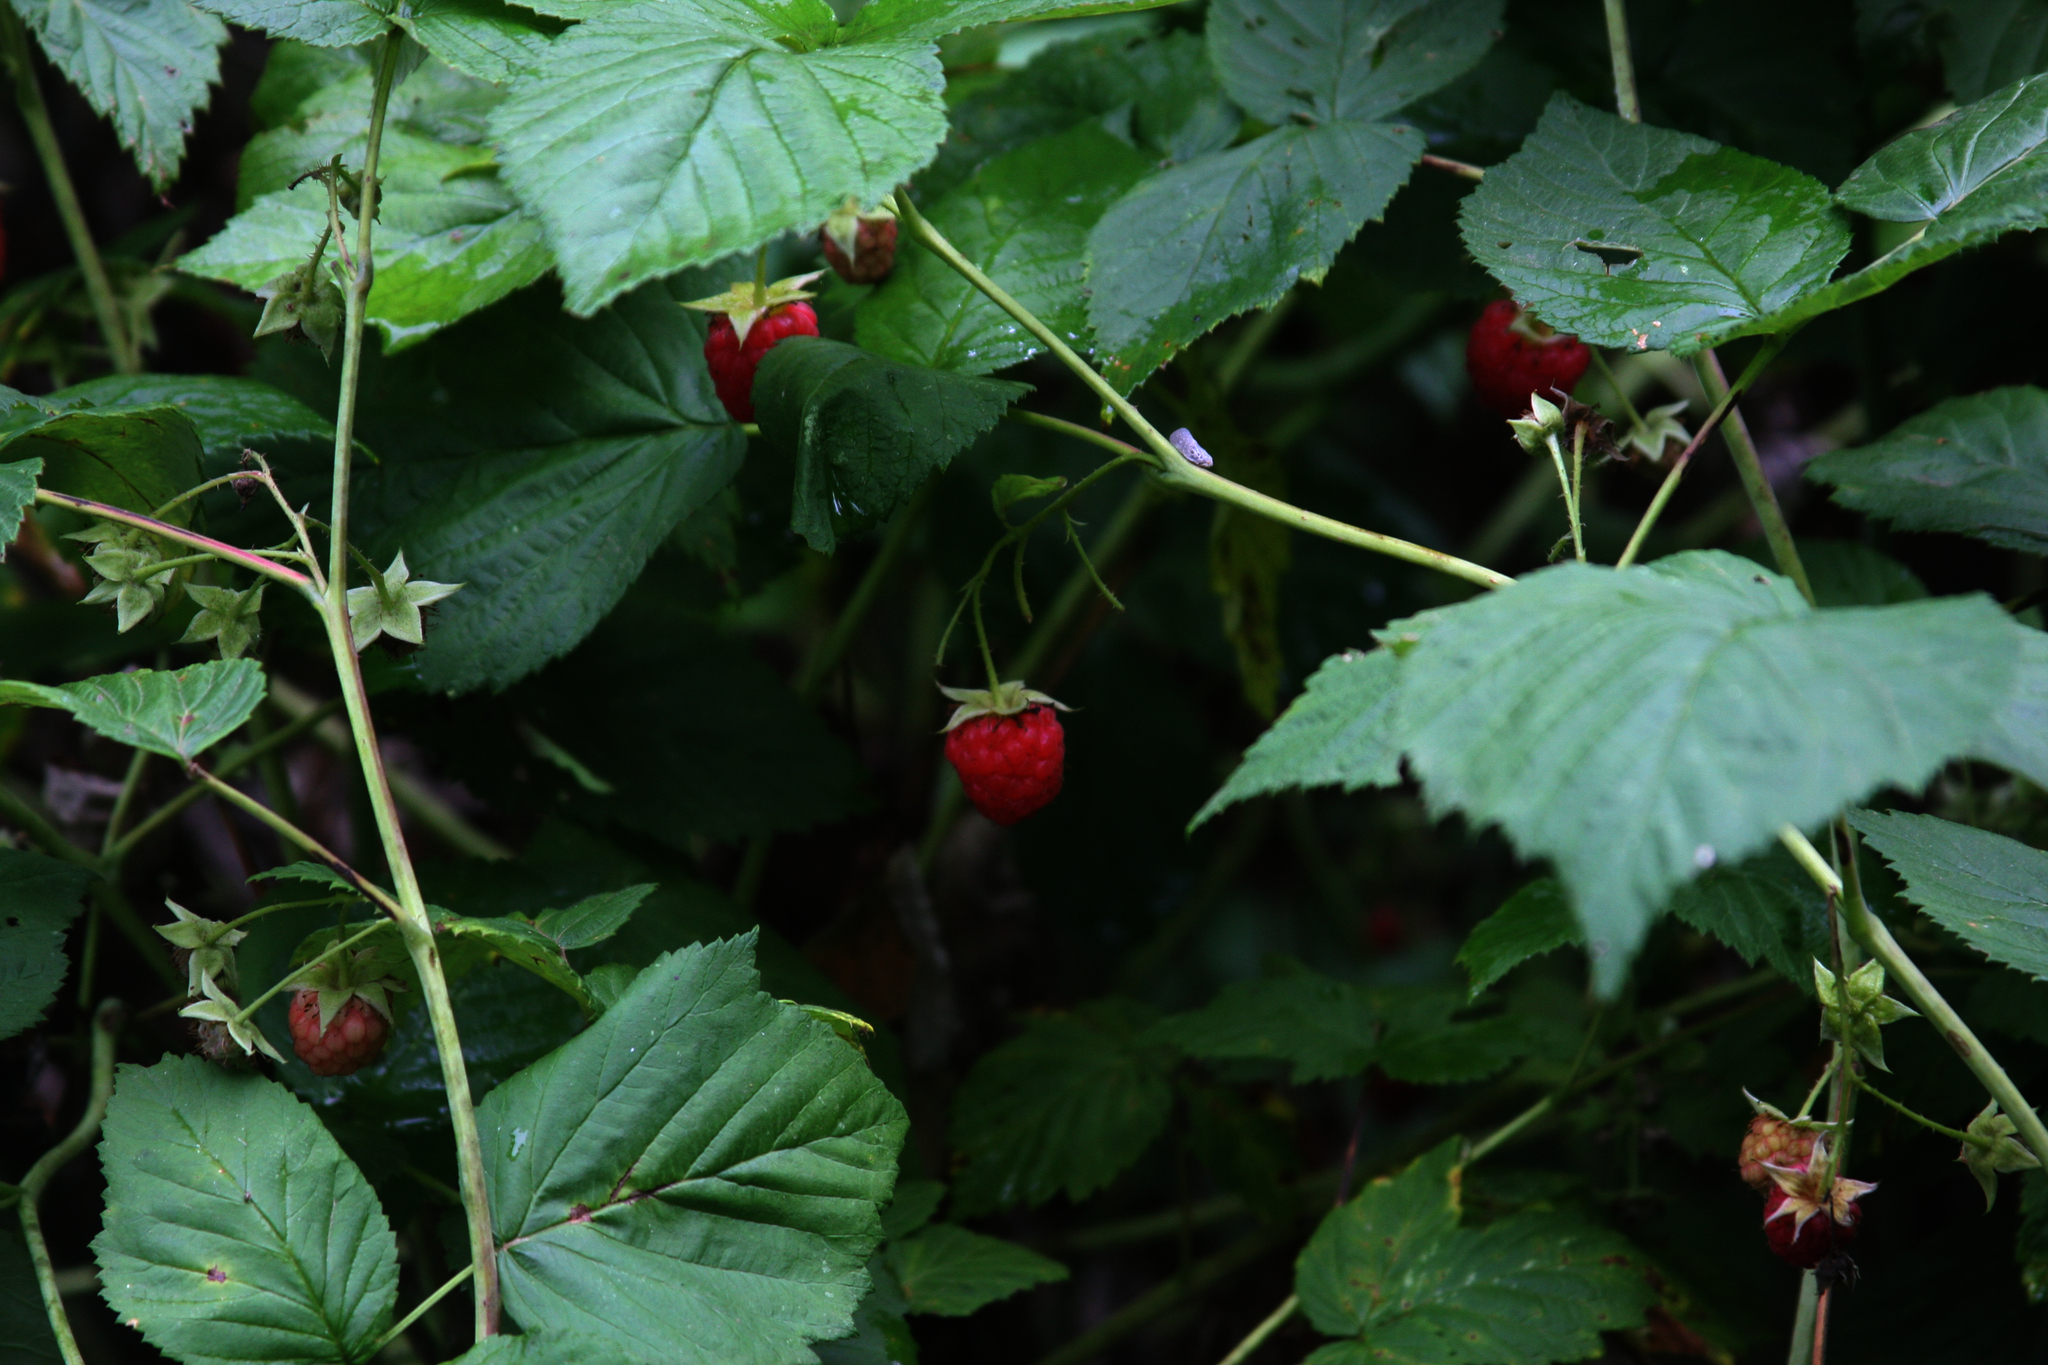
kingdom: Plantae
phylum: Tracheophyta
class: Magnoliopsida
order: Rosales
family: Rosaceae
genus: Rubus
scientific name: Rubus idaeus
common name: Raspberry
